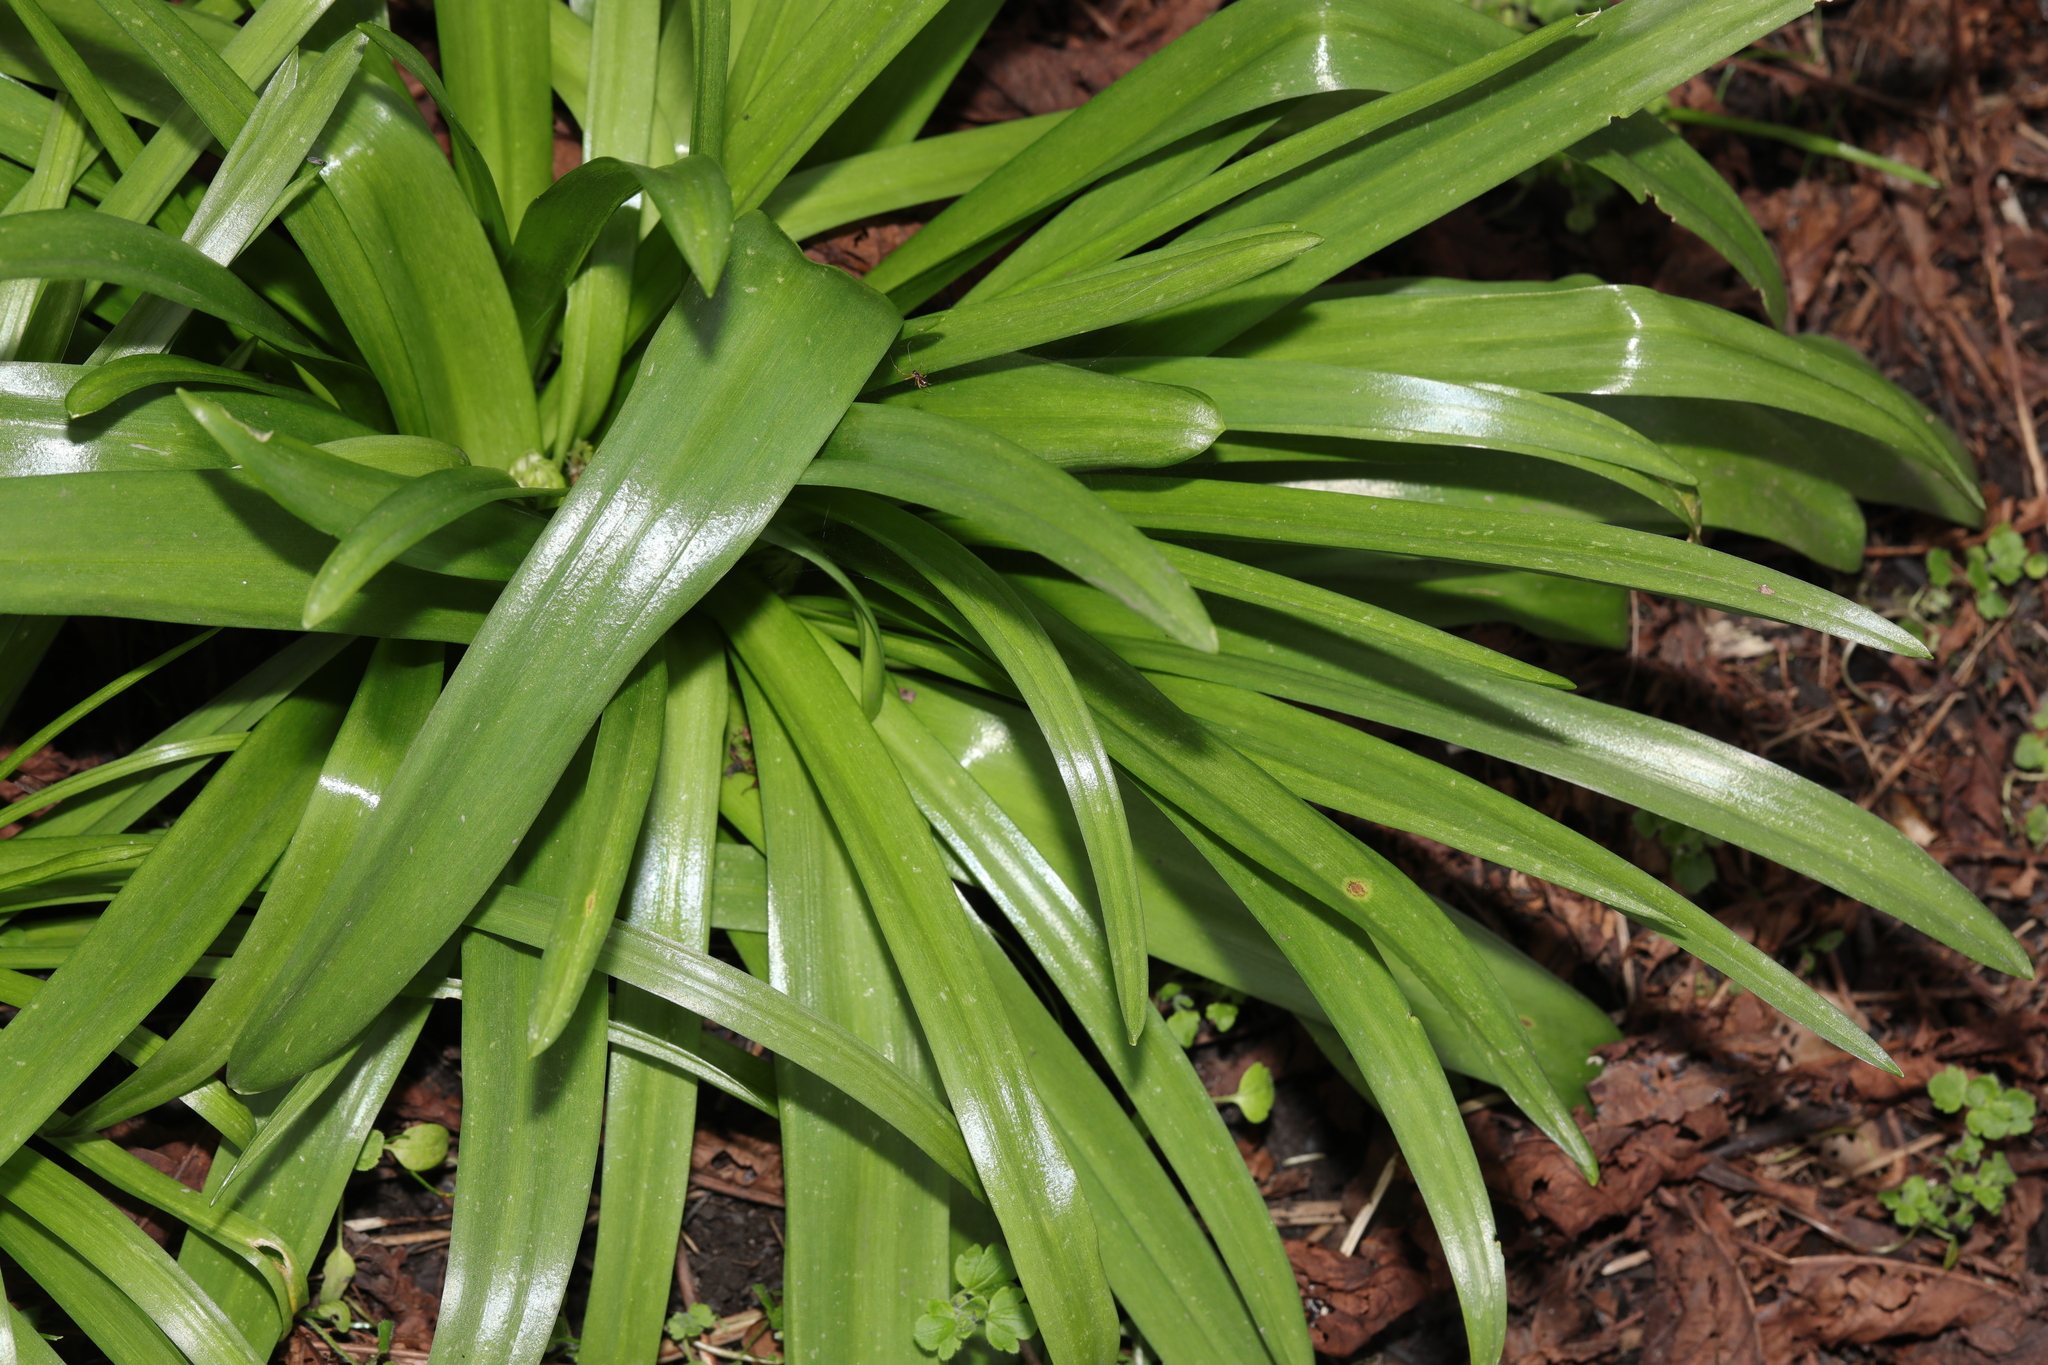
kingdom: Plantae
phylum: Tracheophyta
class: Liliopsida
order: Asparagales
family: Asparagaceae
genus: Hyacinthoides
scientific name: Hyacinthoides massartiana
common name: Hyacinthoides
